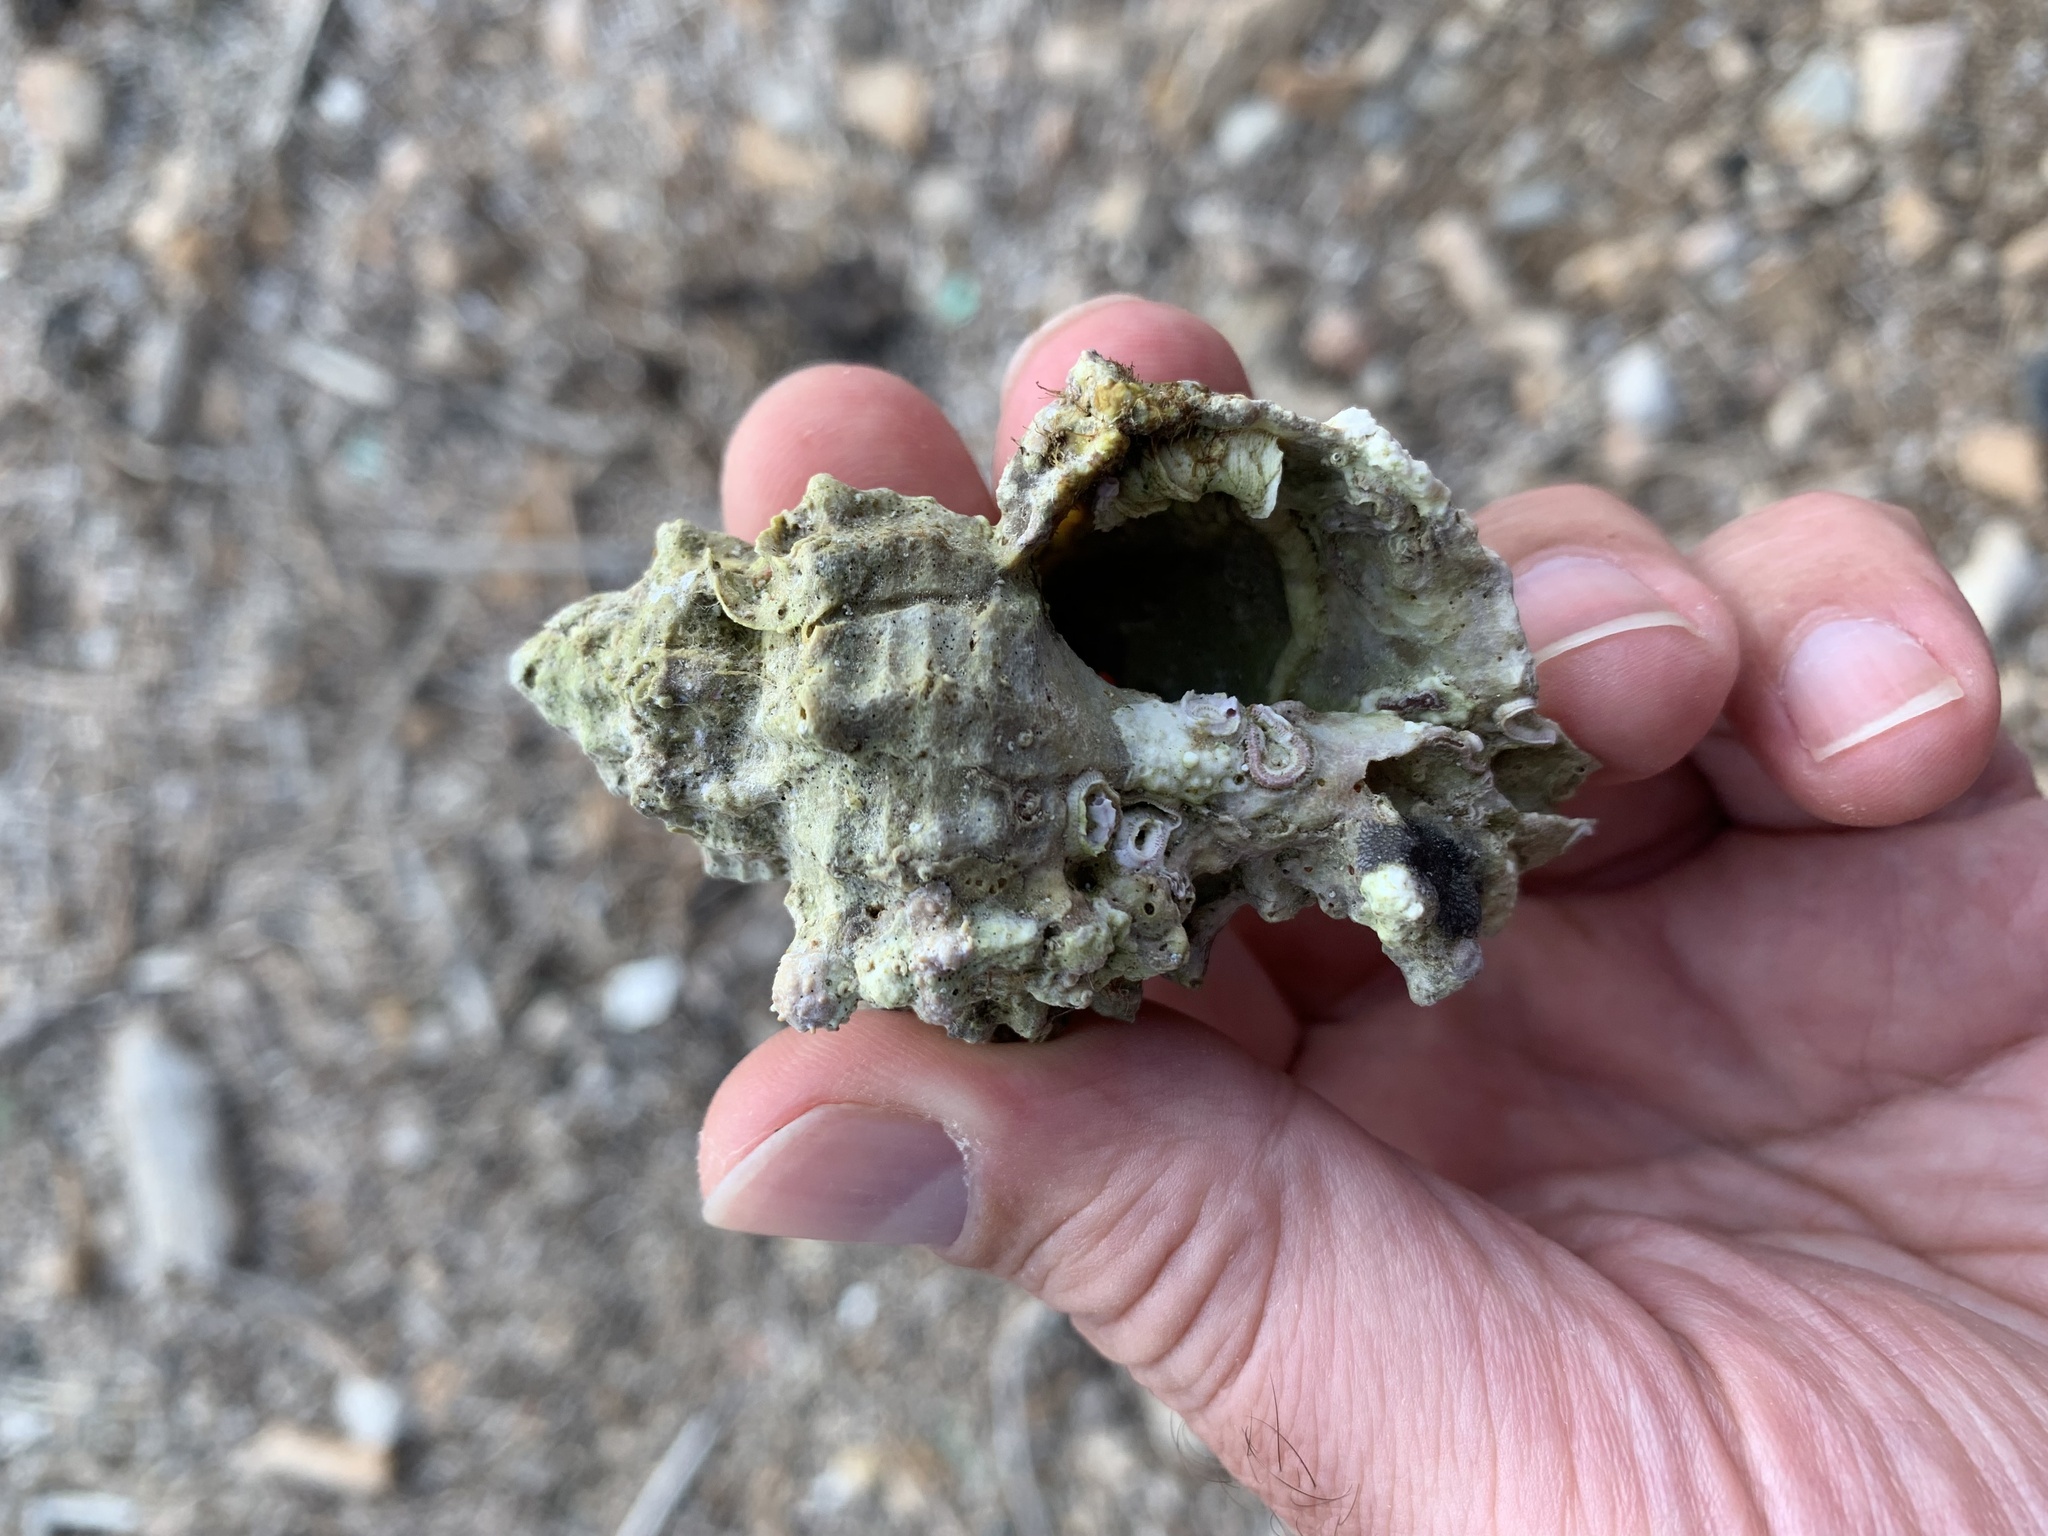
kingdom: Animalia
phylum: Mollusca
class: Gastropoda
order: Neogastropoda
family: Muricidae
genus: Hexaplex
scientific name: Hexaplex trunculus
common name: Banded dye-murex
